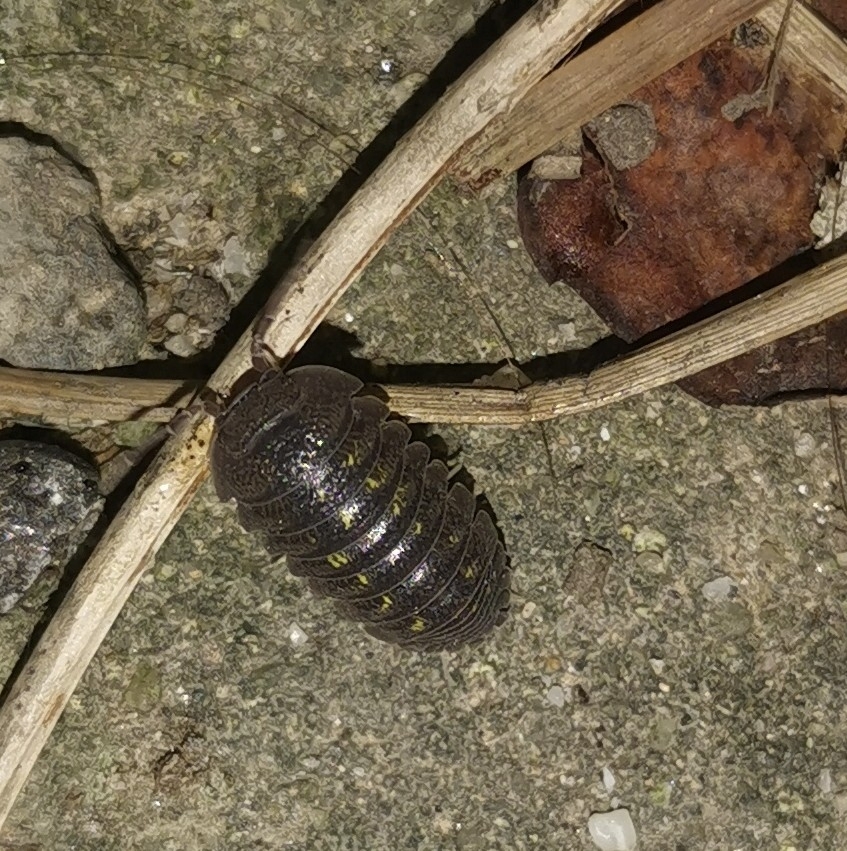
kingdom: Animalia
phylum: Arthropoda
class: Malacostraca
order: Isopoda
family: Armadillidiidae
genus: Armadillidium
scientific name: Armadillidium granulatum
